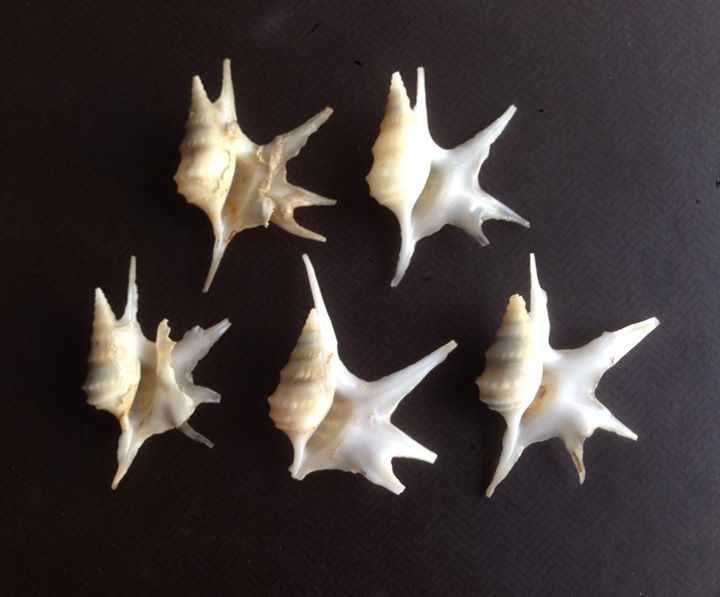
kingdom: Animalia
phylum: Mollusca
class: Gastropoda
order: Littorinimorpha
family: Aporrhaidae
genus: Aporrhais
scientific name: Aporrhais serresiana
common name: Mediterranean pelican's foot
